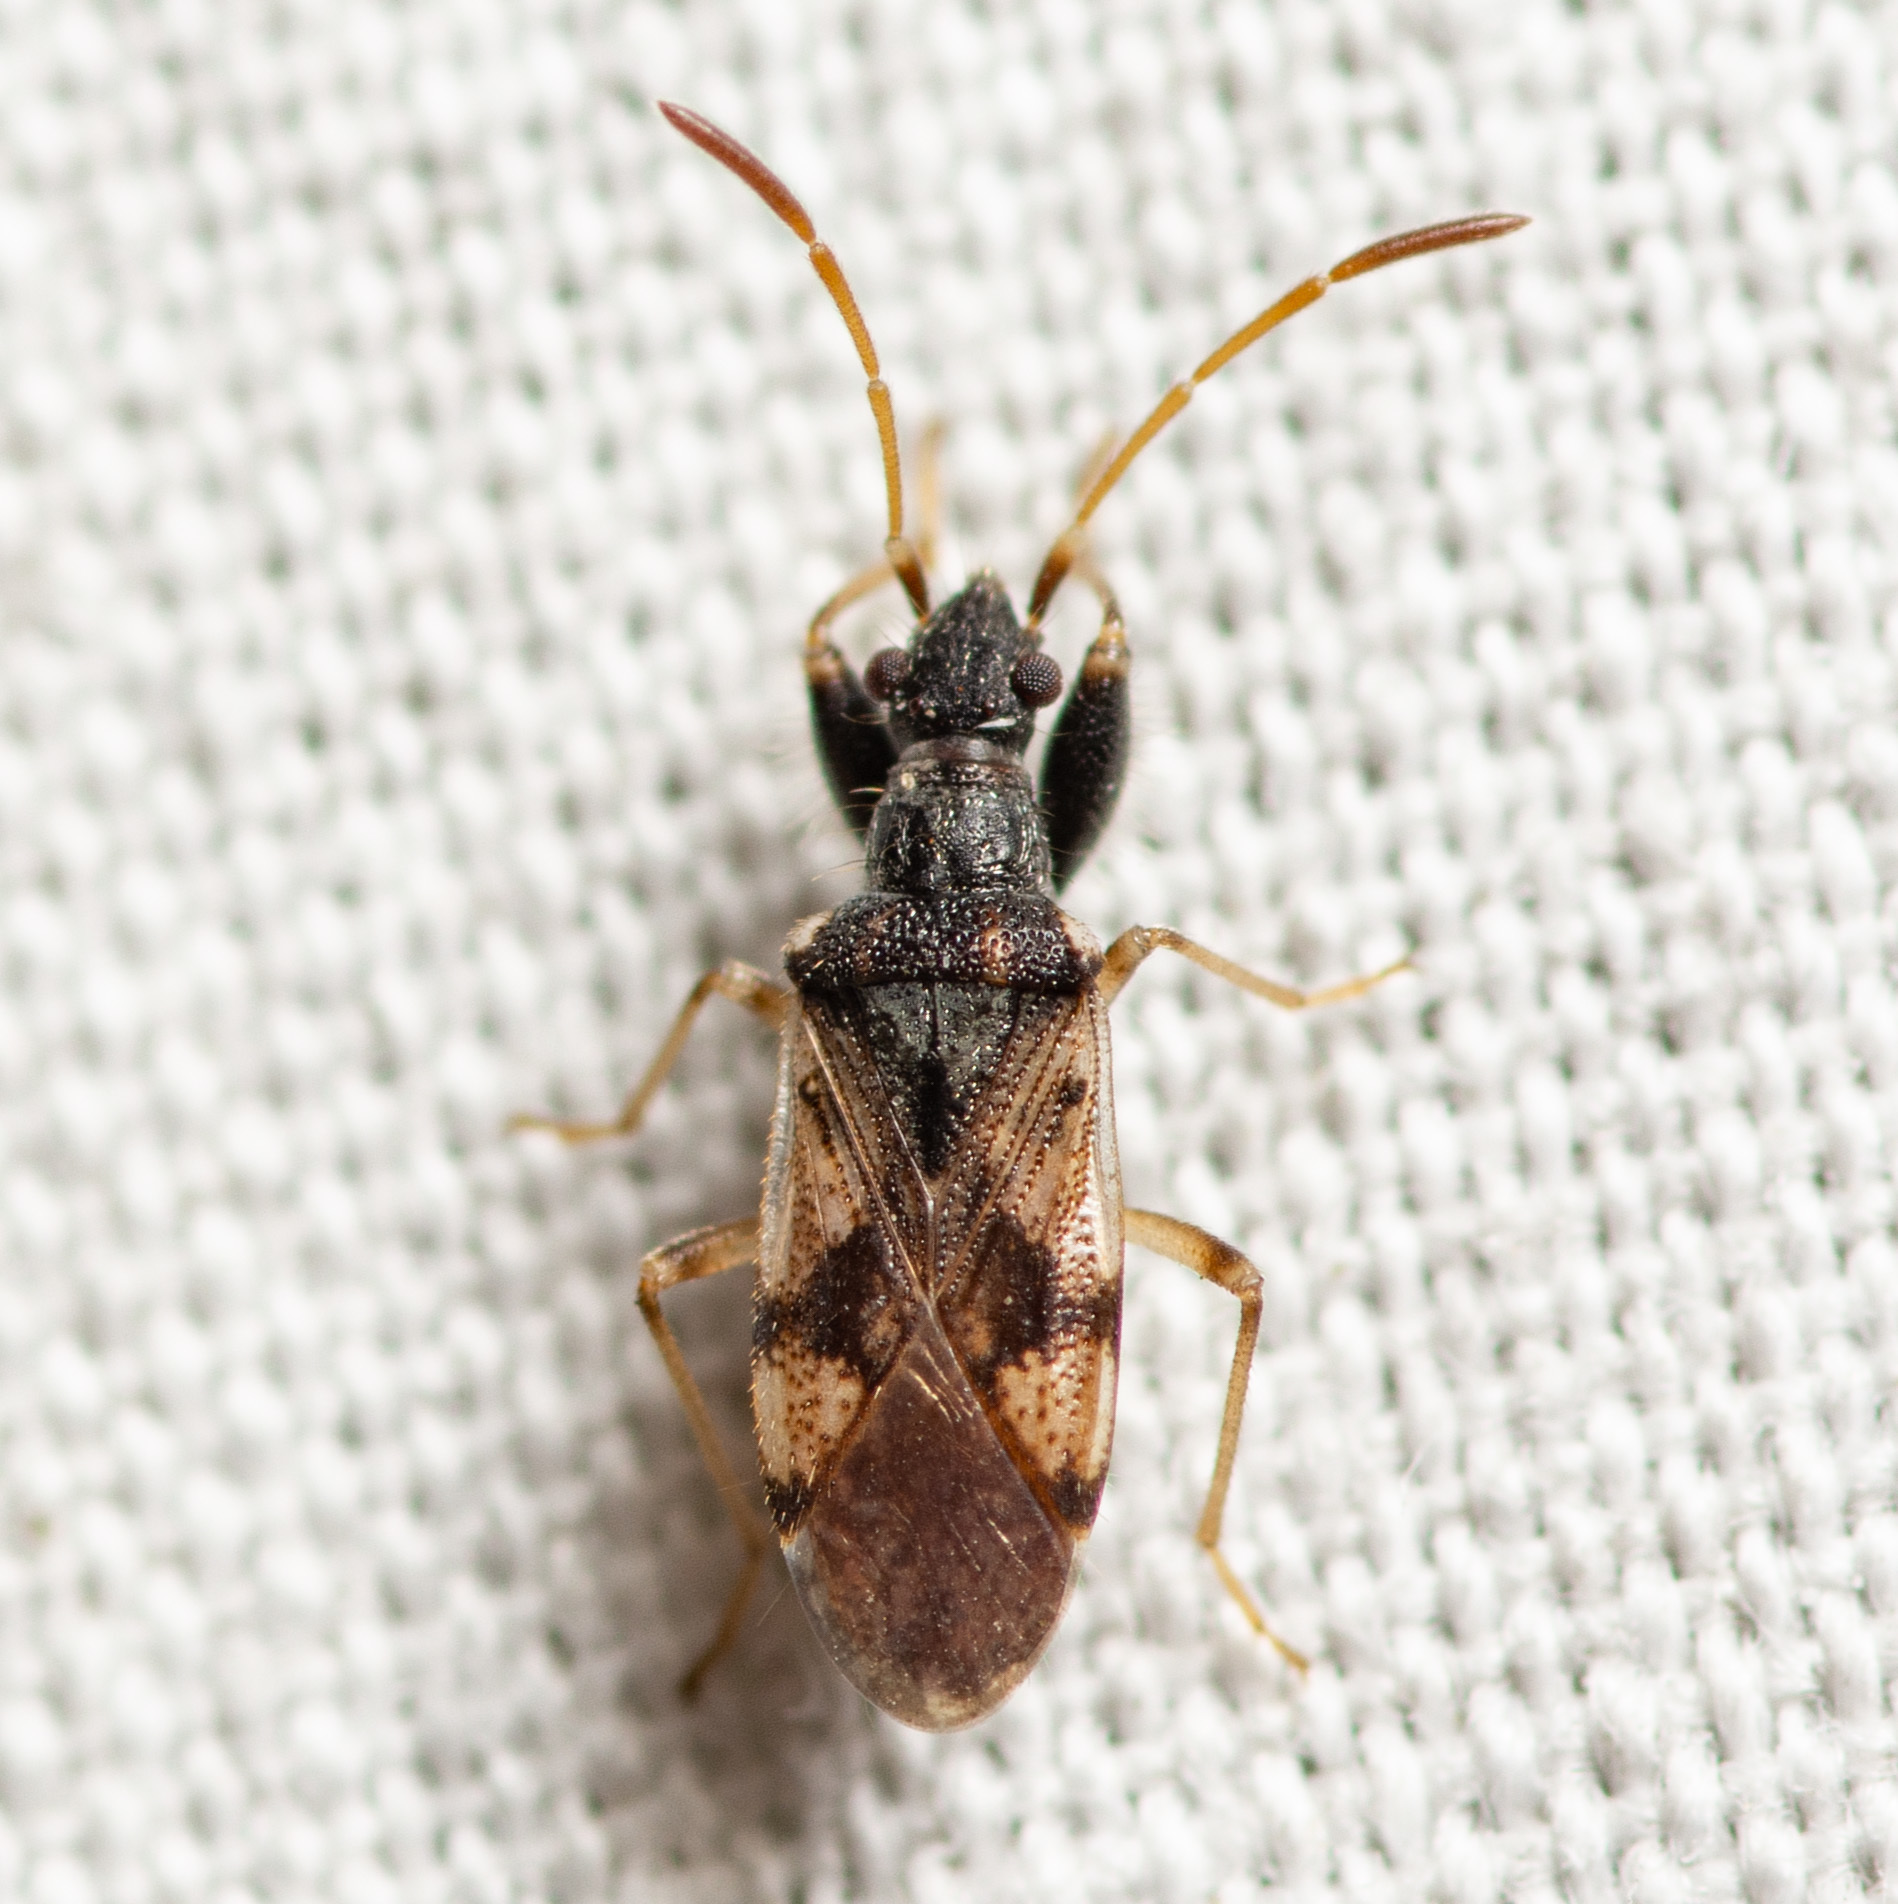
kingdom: Animalia
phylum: Arthropoda
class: Insecta
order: Hemiptera
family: Rhyparochromidae
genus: Pseudopamera
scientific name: Pseudopamera setosa
